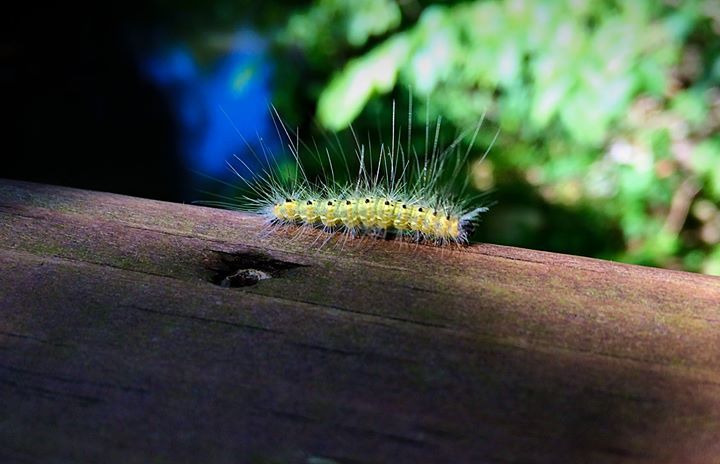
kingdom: Animalia
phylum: Arthropoda
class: Insecta
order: Lepidoptera
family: Erebidae
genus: Hyphantria
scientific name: Hyphantria cunea
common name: American white moth
